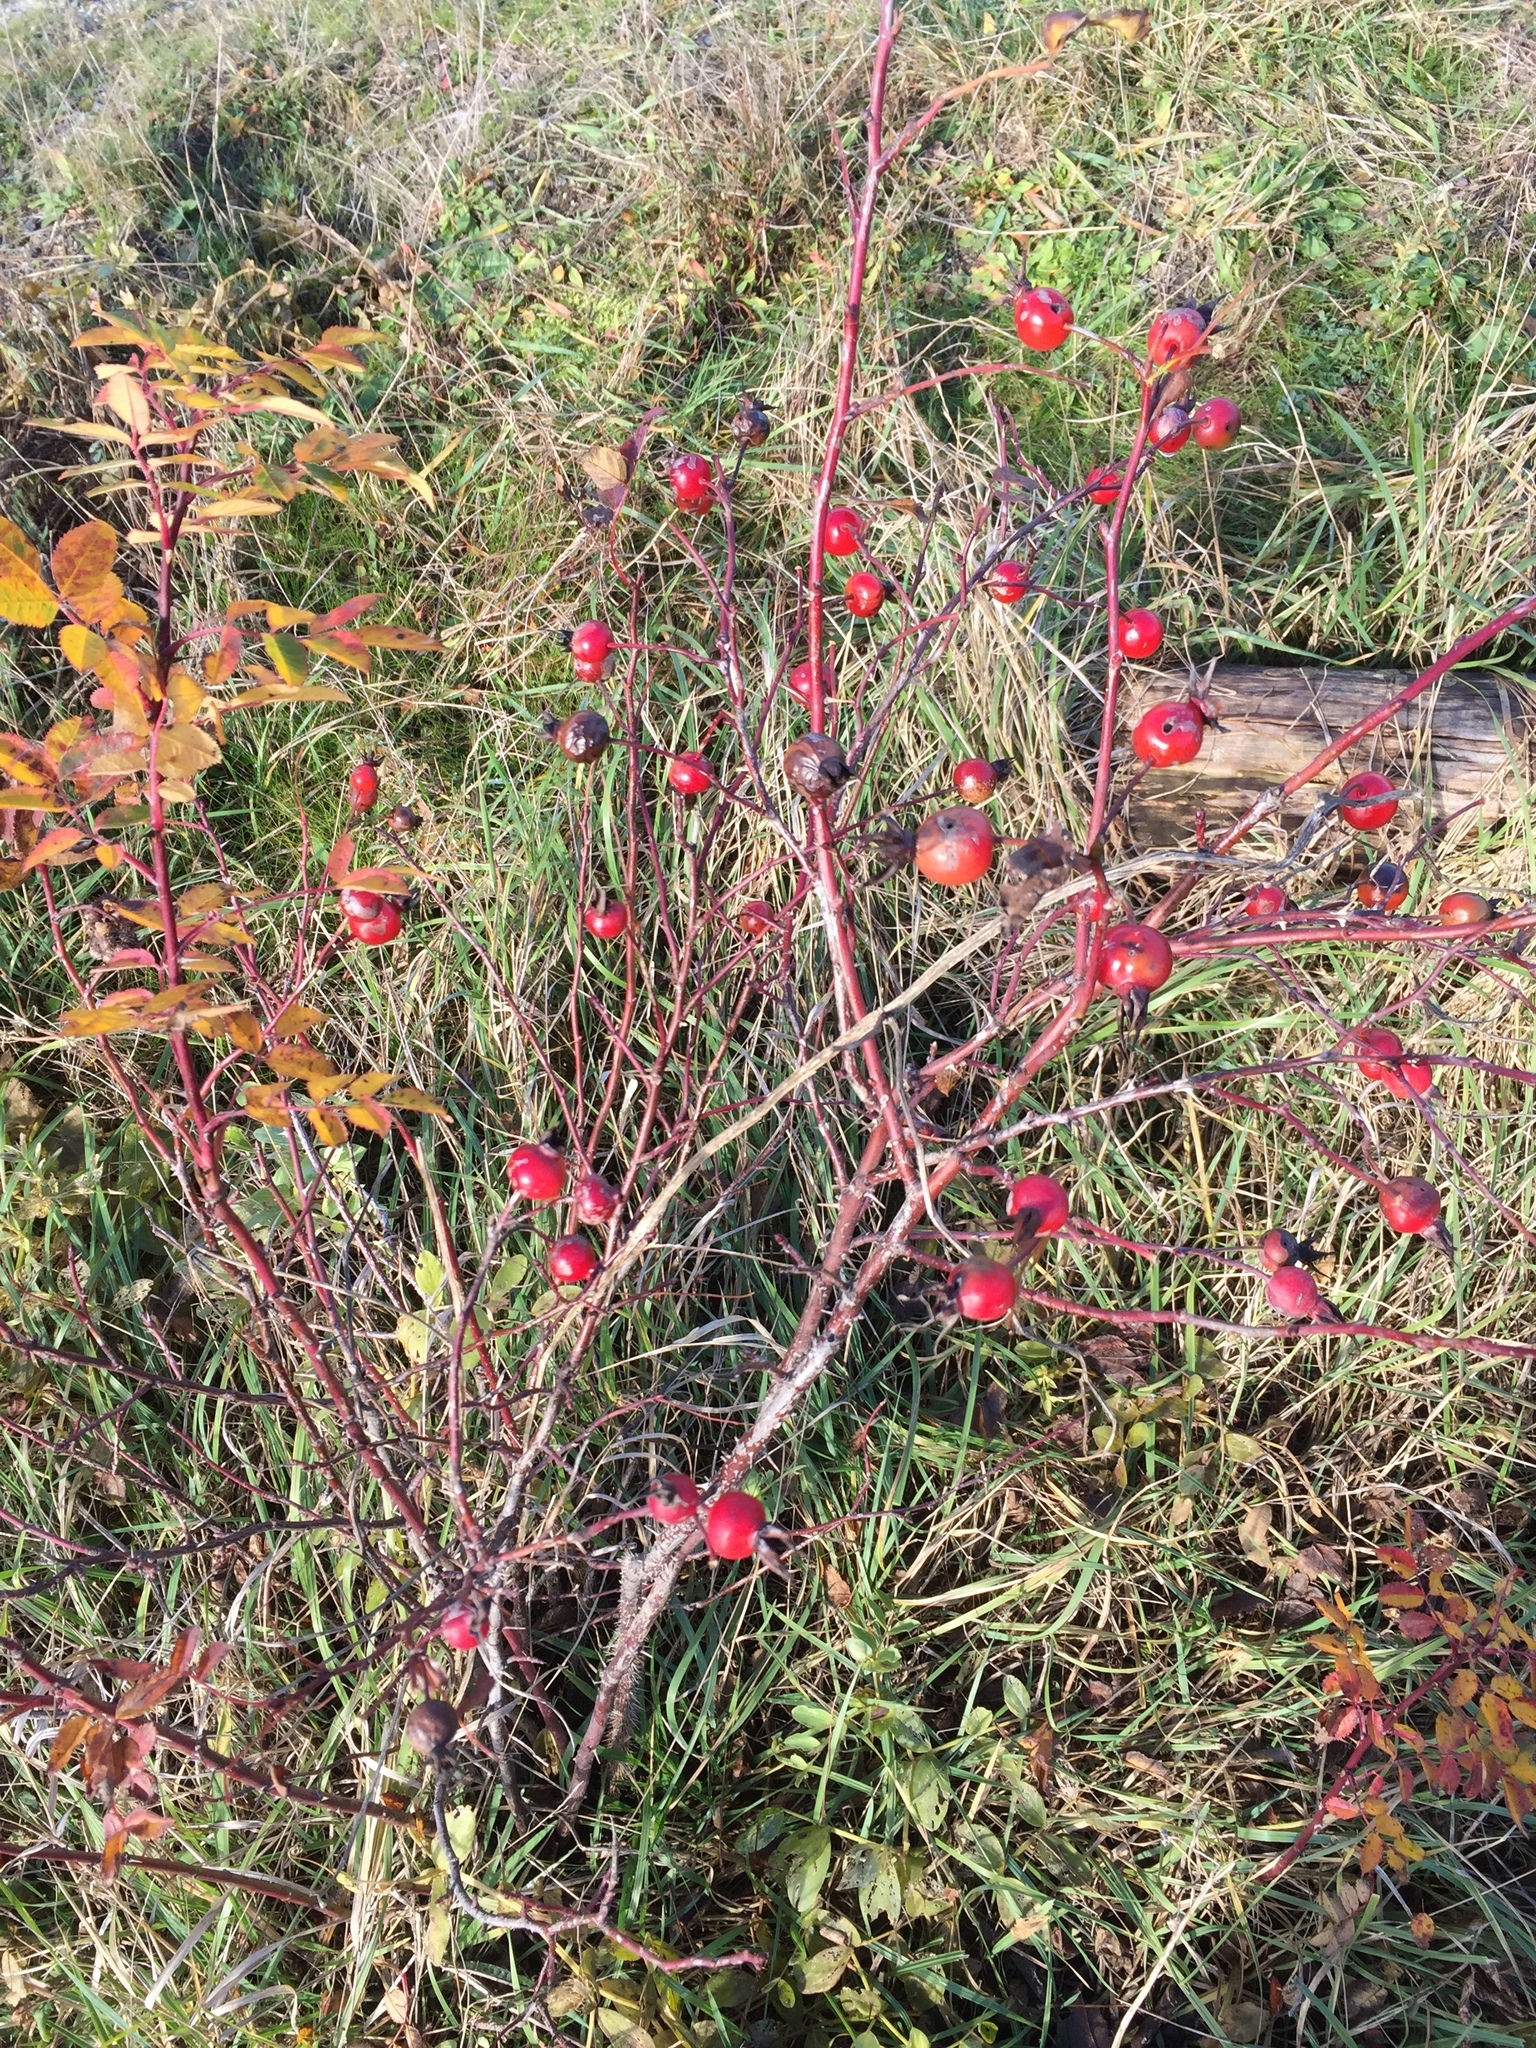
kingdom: Plantae
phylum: Tracheophyta
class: Magnoliopsida
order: Rosales
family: Rosaceae
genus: Rosa
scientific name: Rosa nutkana
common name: Nootka rose
